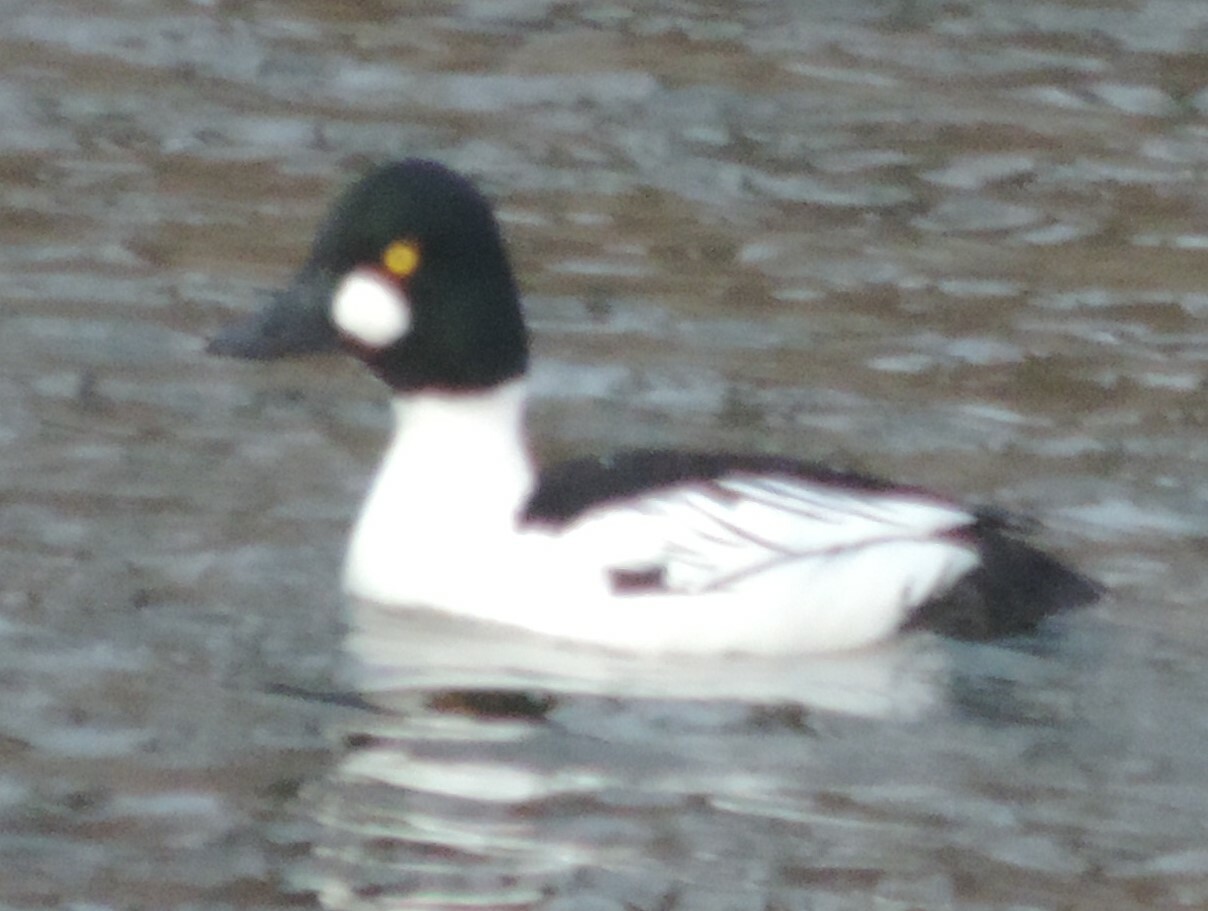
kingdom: Animalia
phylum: Chordata
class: Aves
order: Anseriformes
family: Anatidae
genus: Bucephala
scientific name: Bucephala clangula
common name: Common goldeneye
